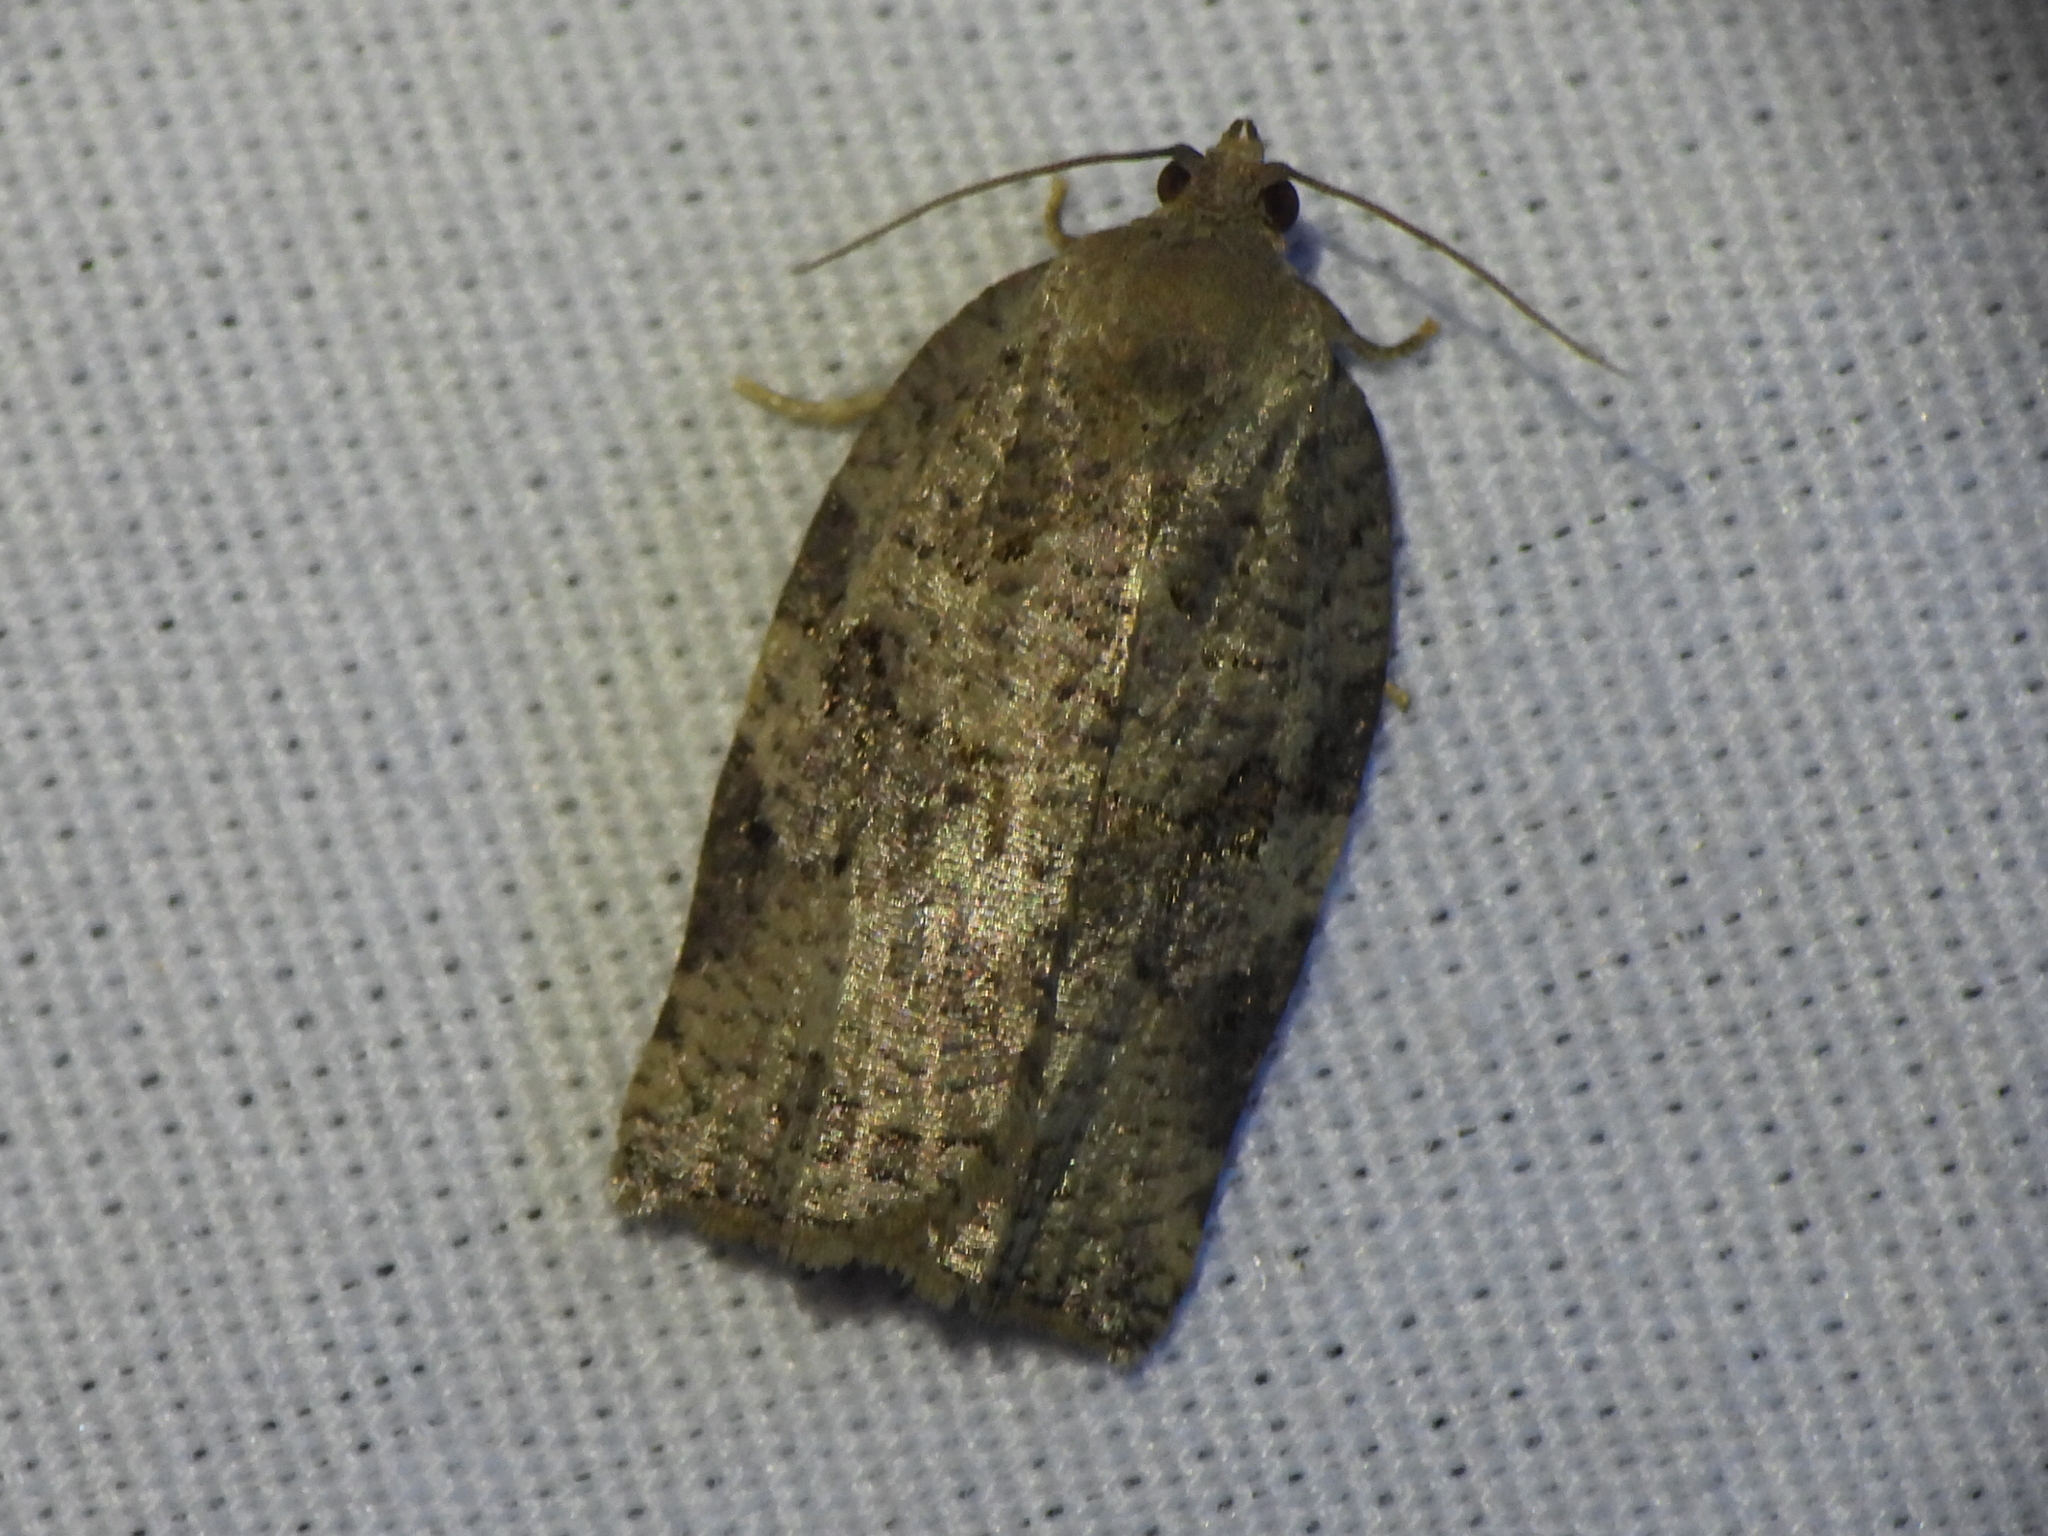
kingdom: Animalia
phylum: Arthropoda
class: Insecta
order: Lepidoptera
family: Tortricidae
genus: Archips
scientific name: Archips grisea
